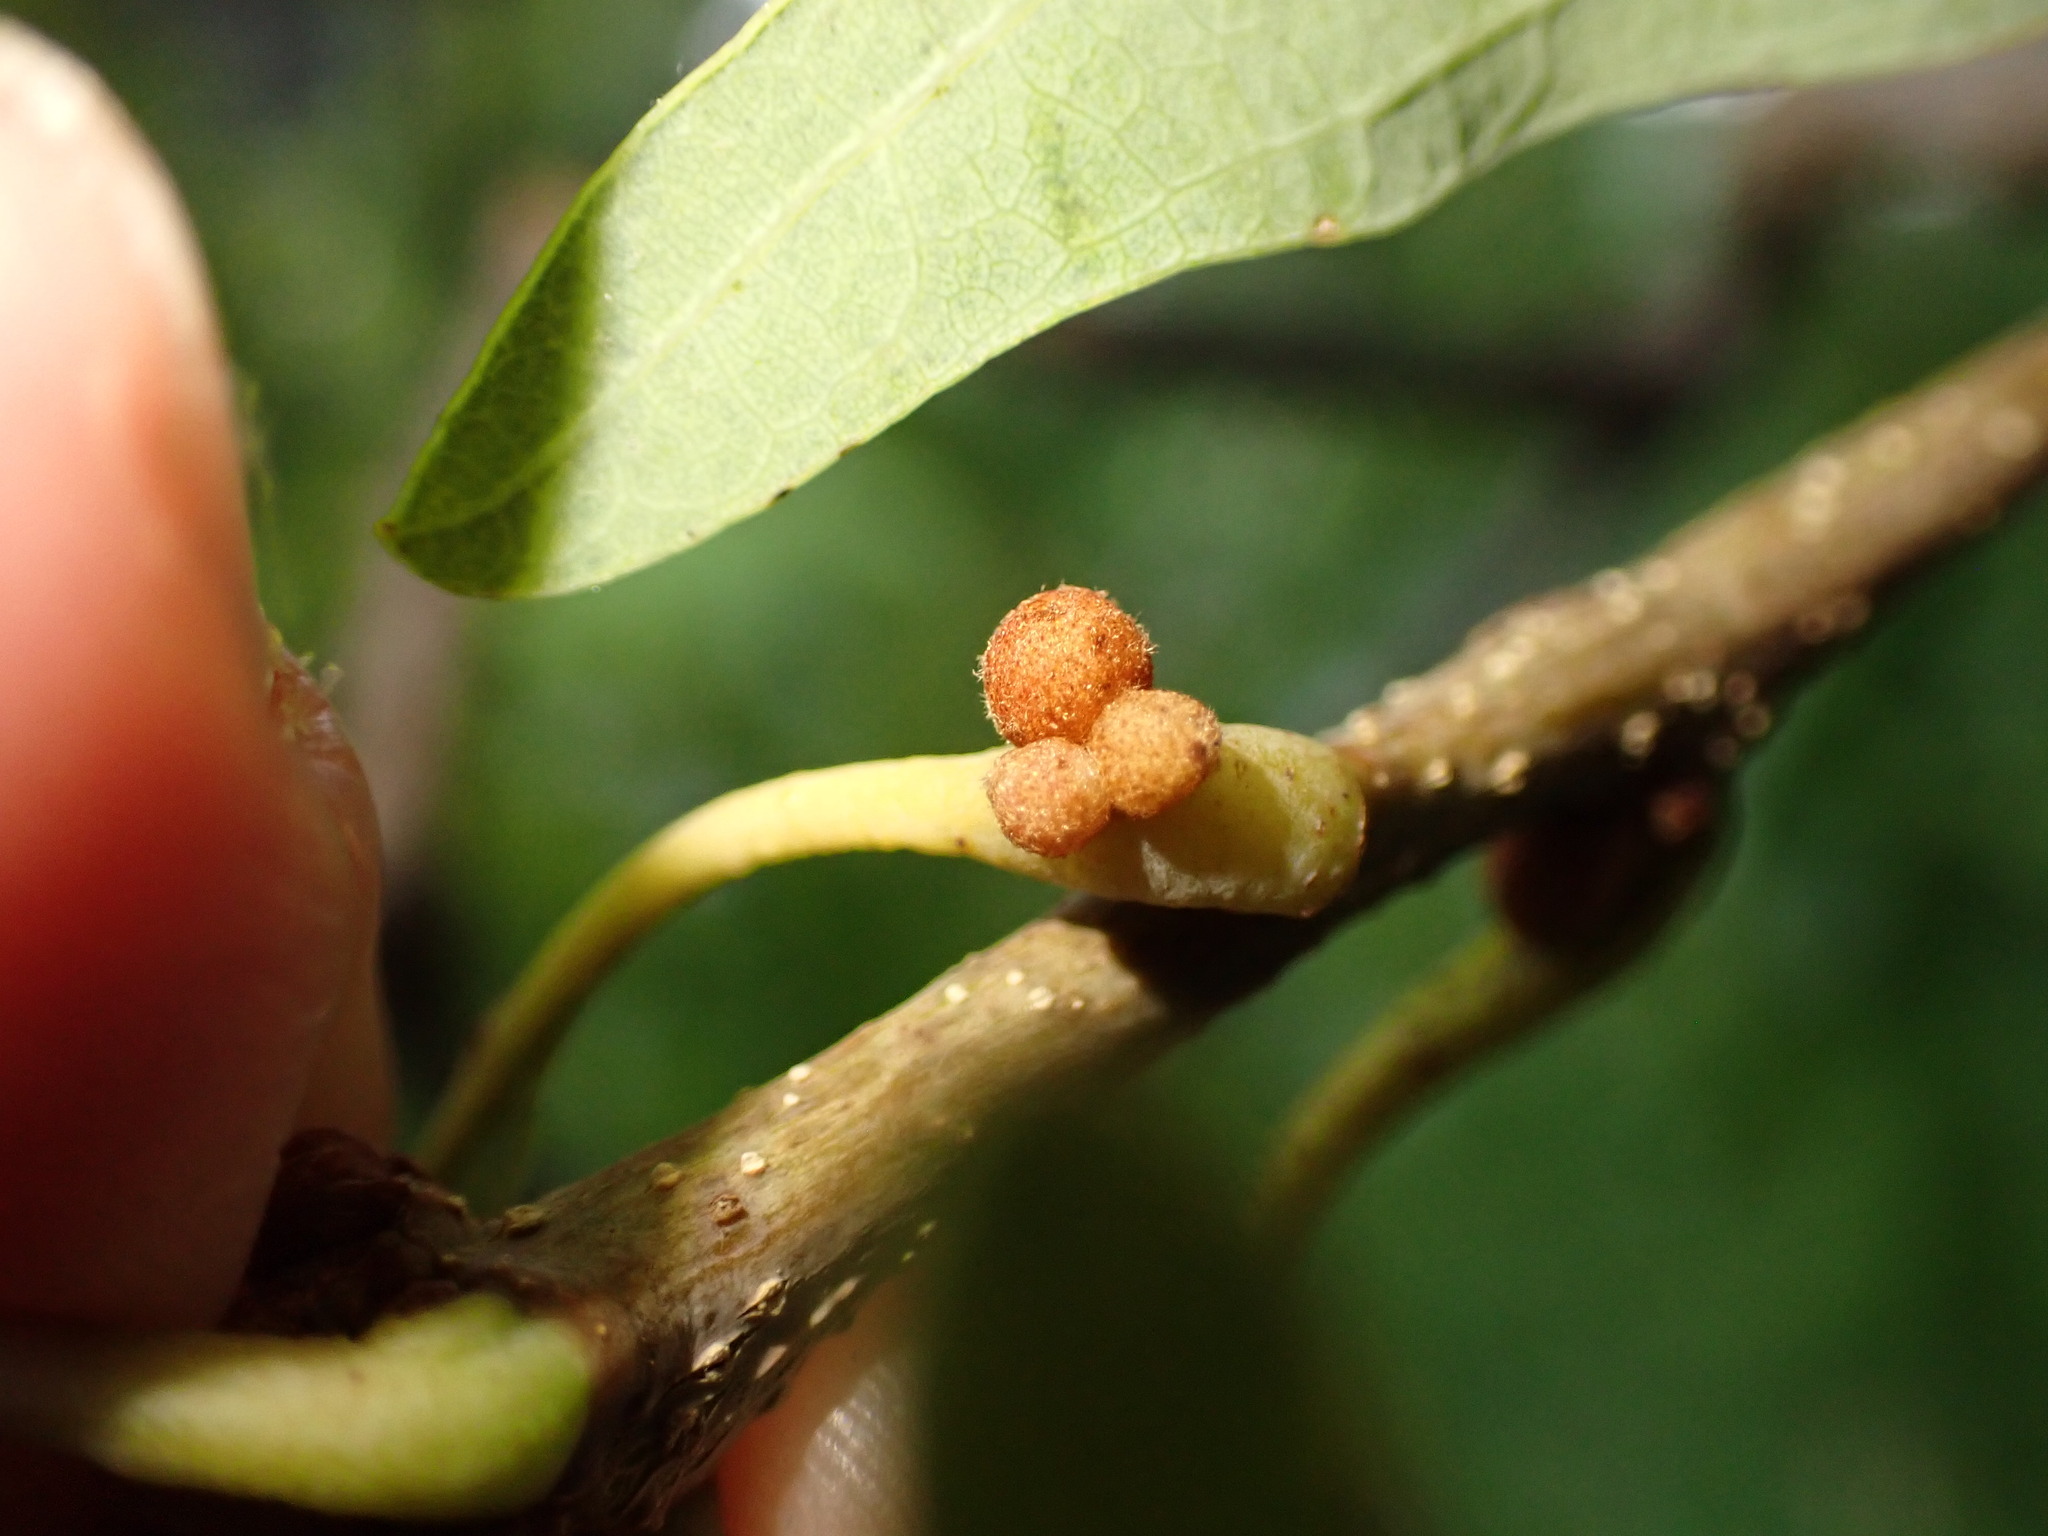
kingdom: Animalia
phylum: Arthropoda
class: Insecta
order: Hymenoptera
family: Cynipidae
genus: Andricus
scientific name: Andricus
